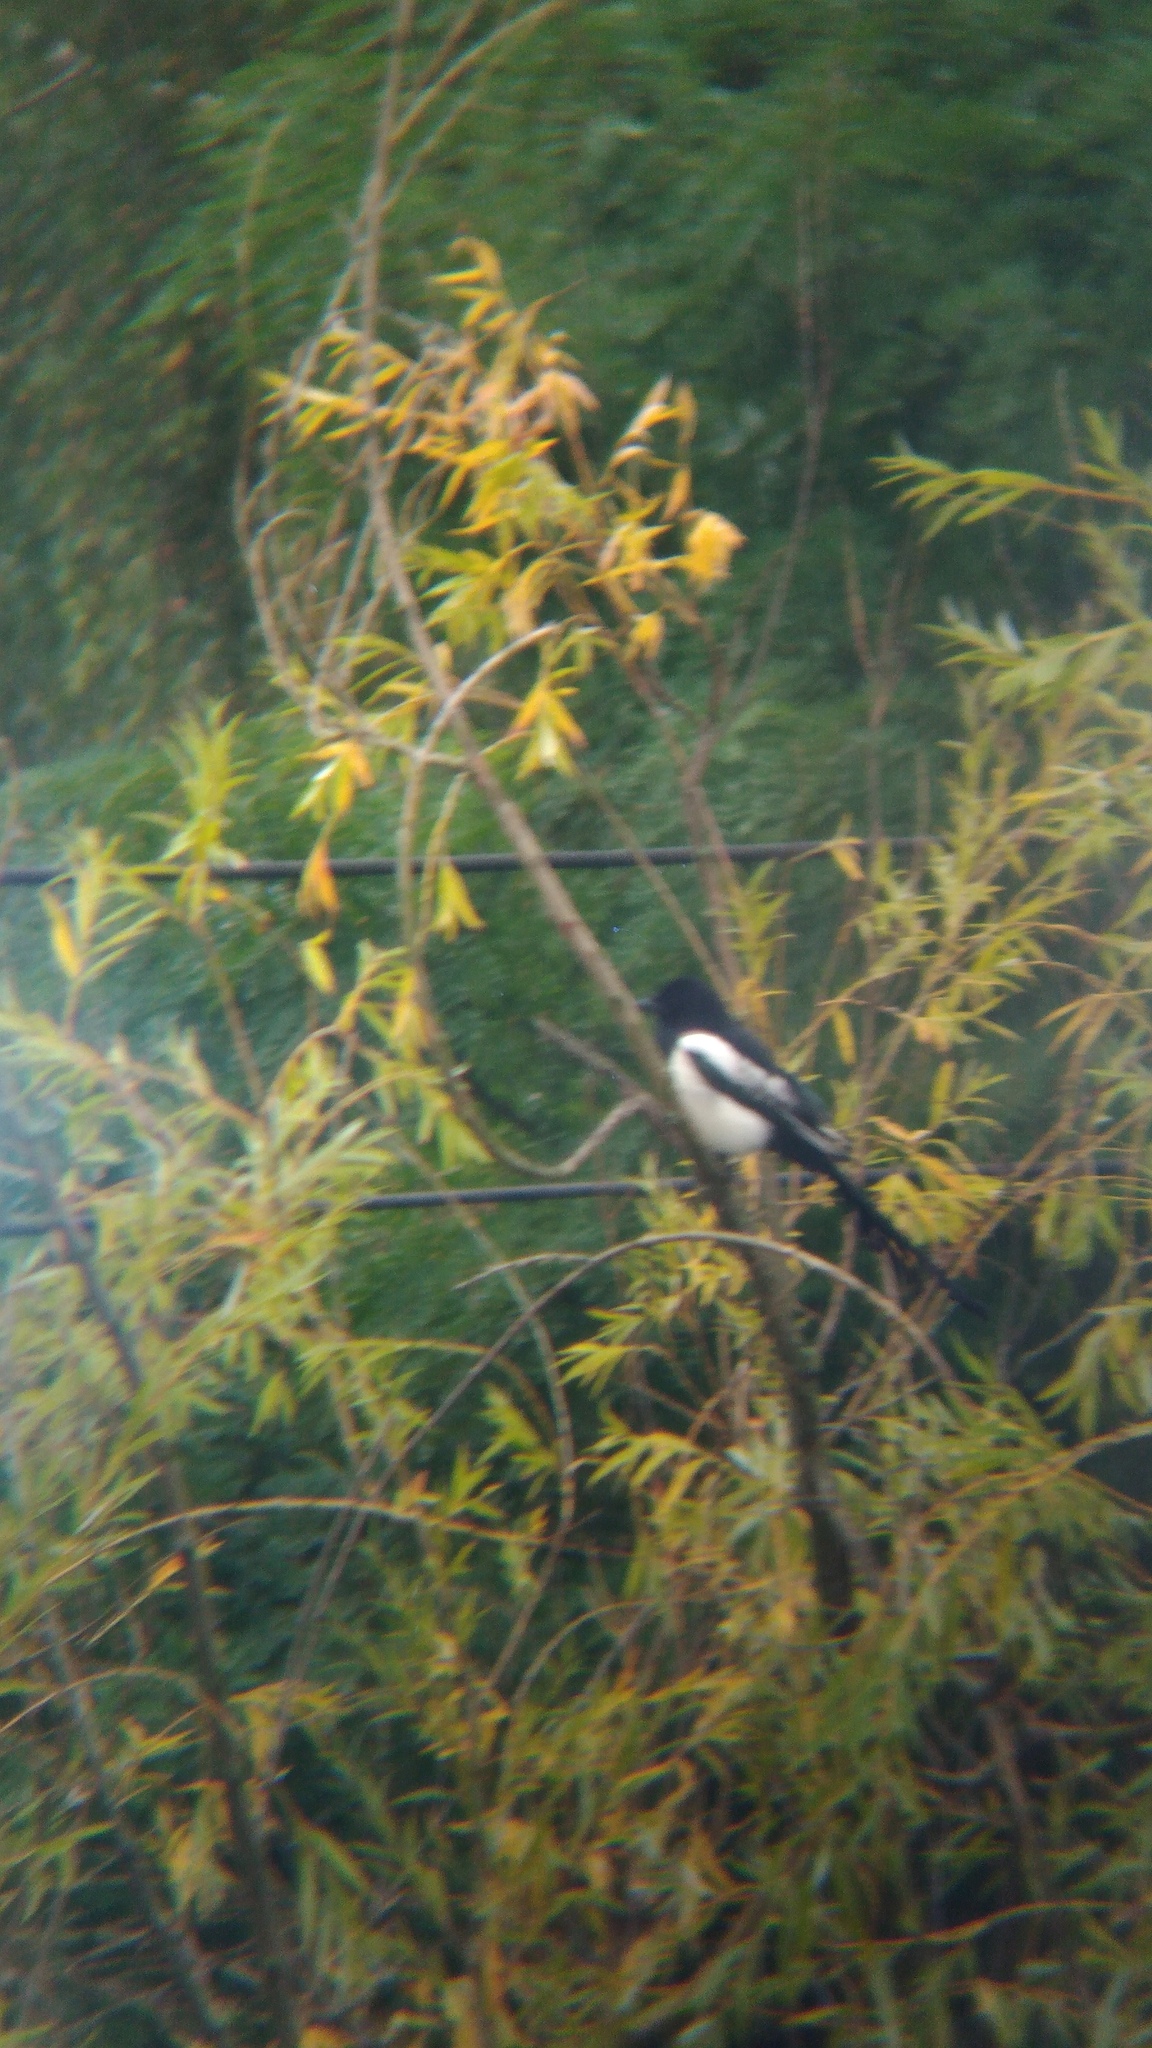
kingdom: Animalia
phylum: Chordata
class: Aves
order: Passeriformes
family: Corvidae
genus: Pica
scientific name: Pica pica
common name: Eurasian magpie
